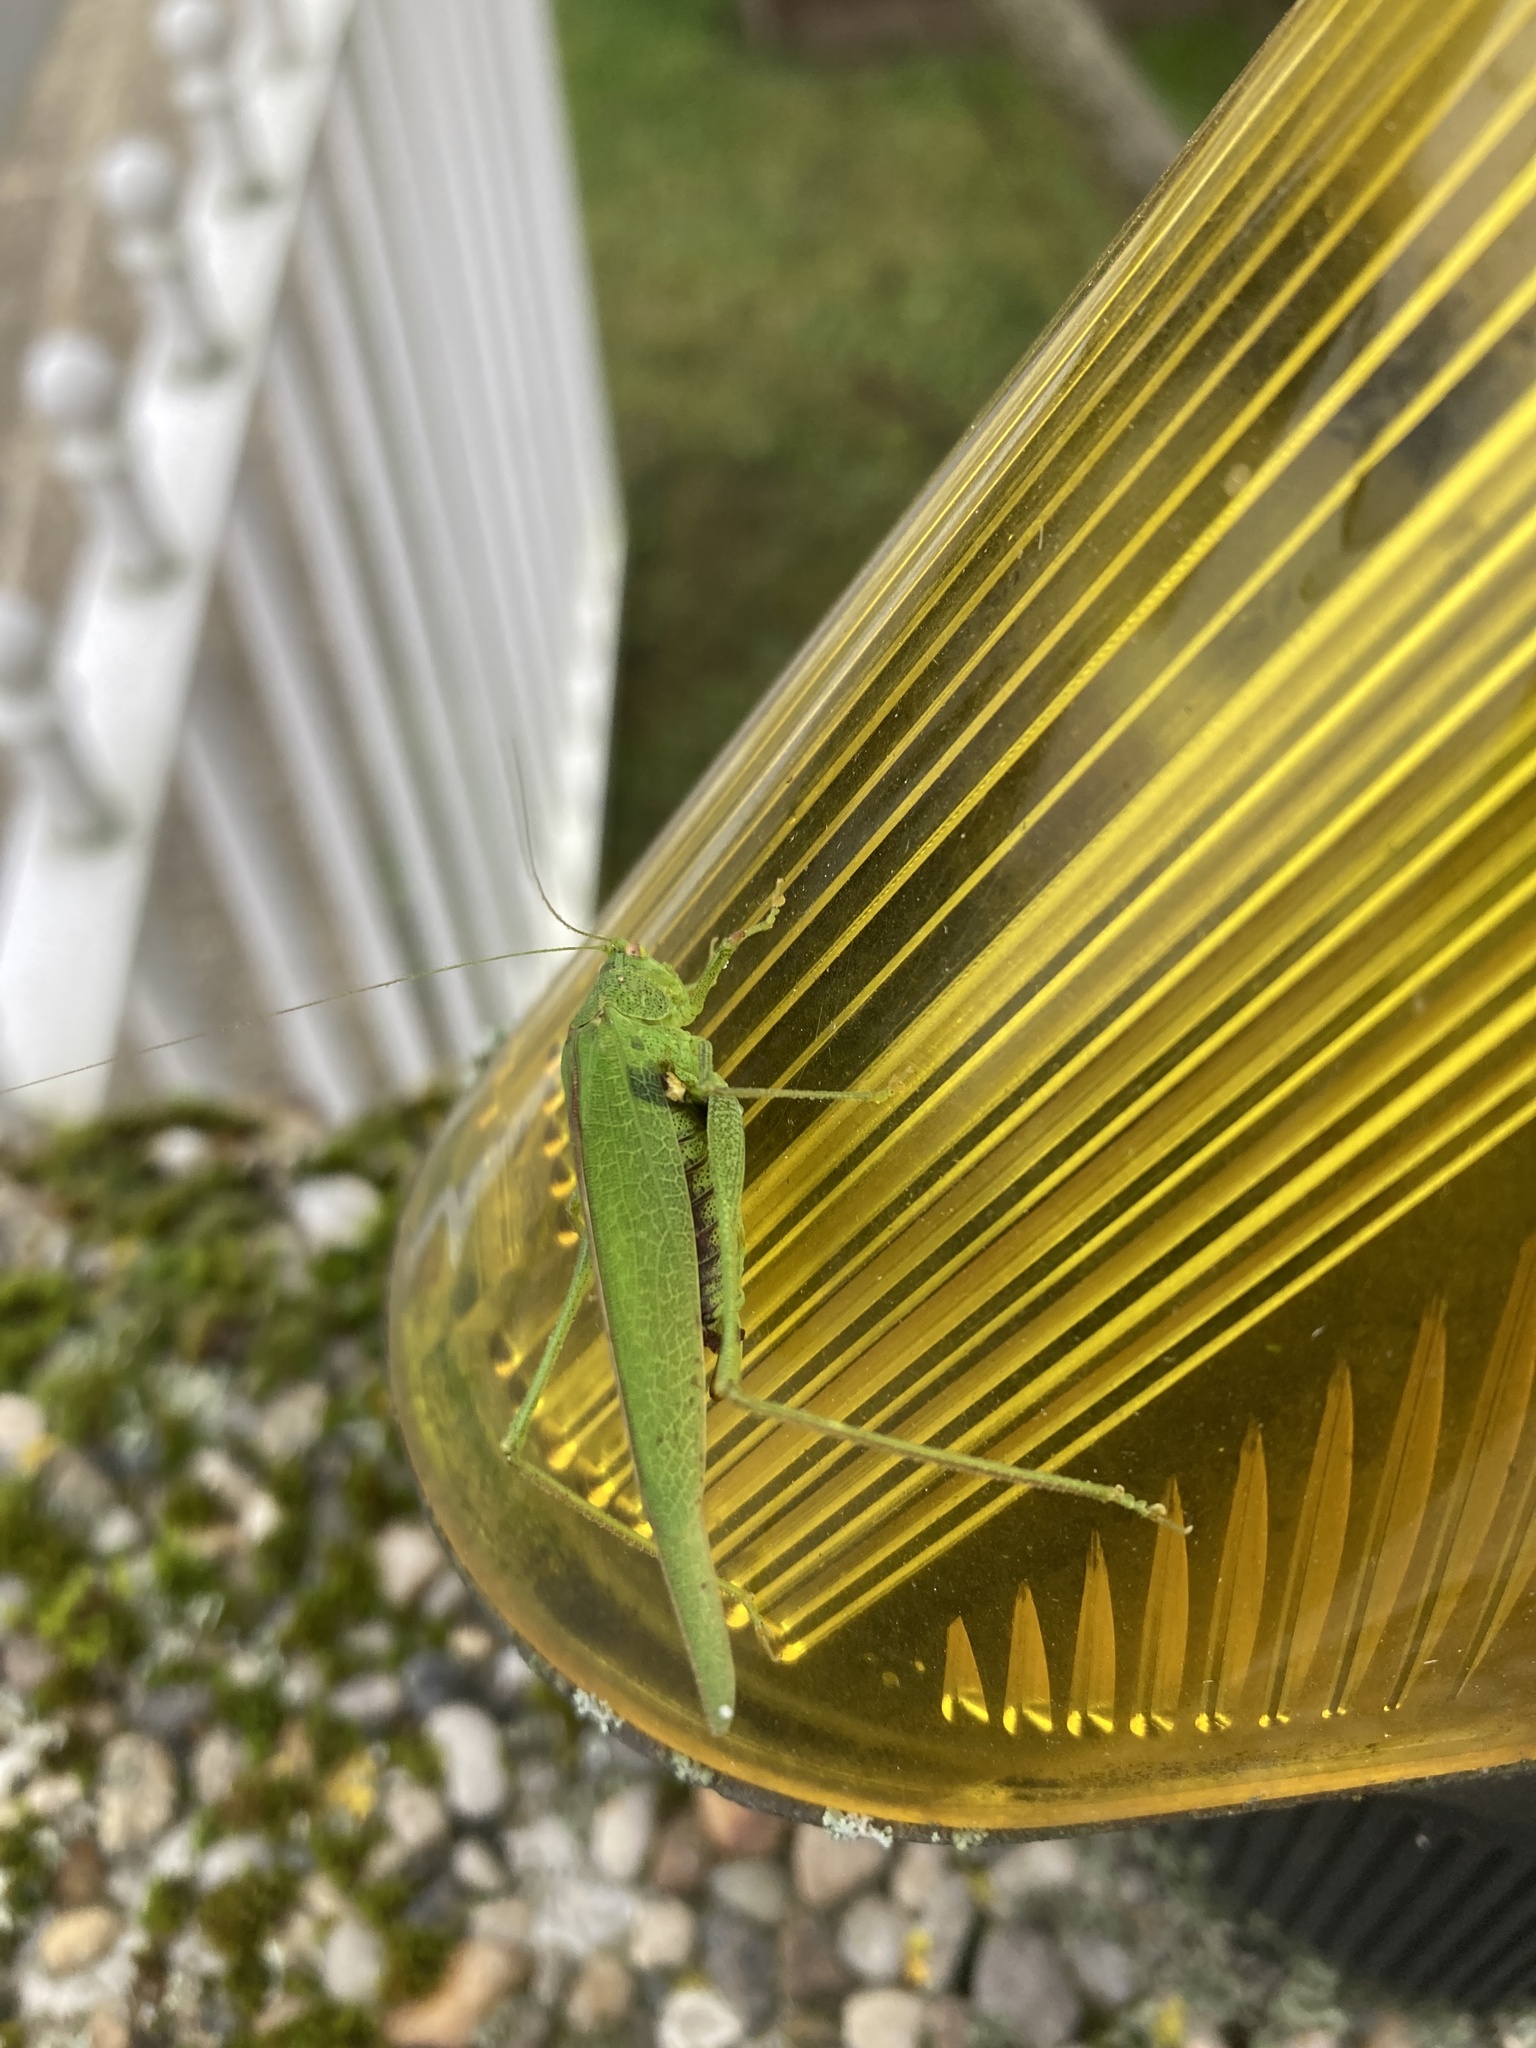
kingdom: Animalia
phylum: Arthropoda
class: Insecta
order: Orthoptera
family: Tettigoniidae
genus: Phaneroptera
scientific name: Phaneroptera nana
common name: Southern sickle bush-cricket
